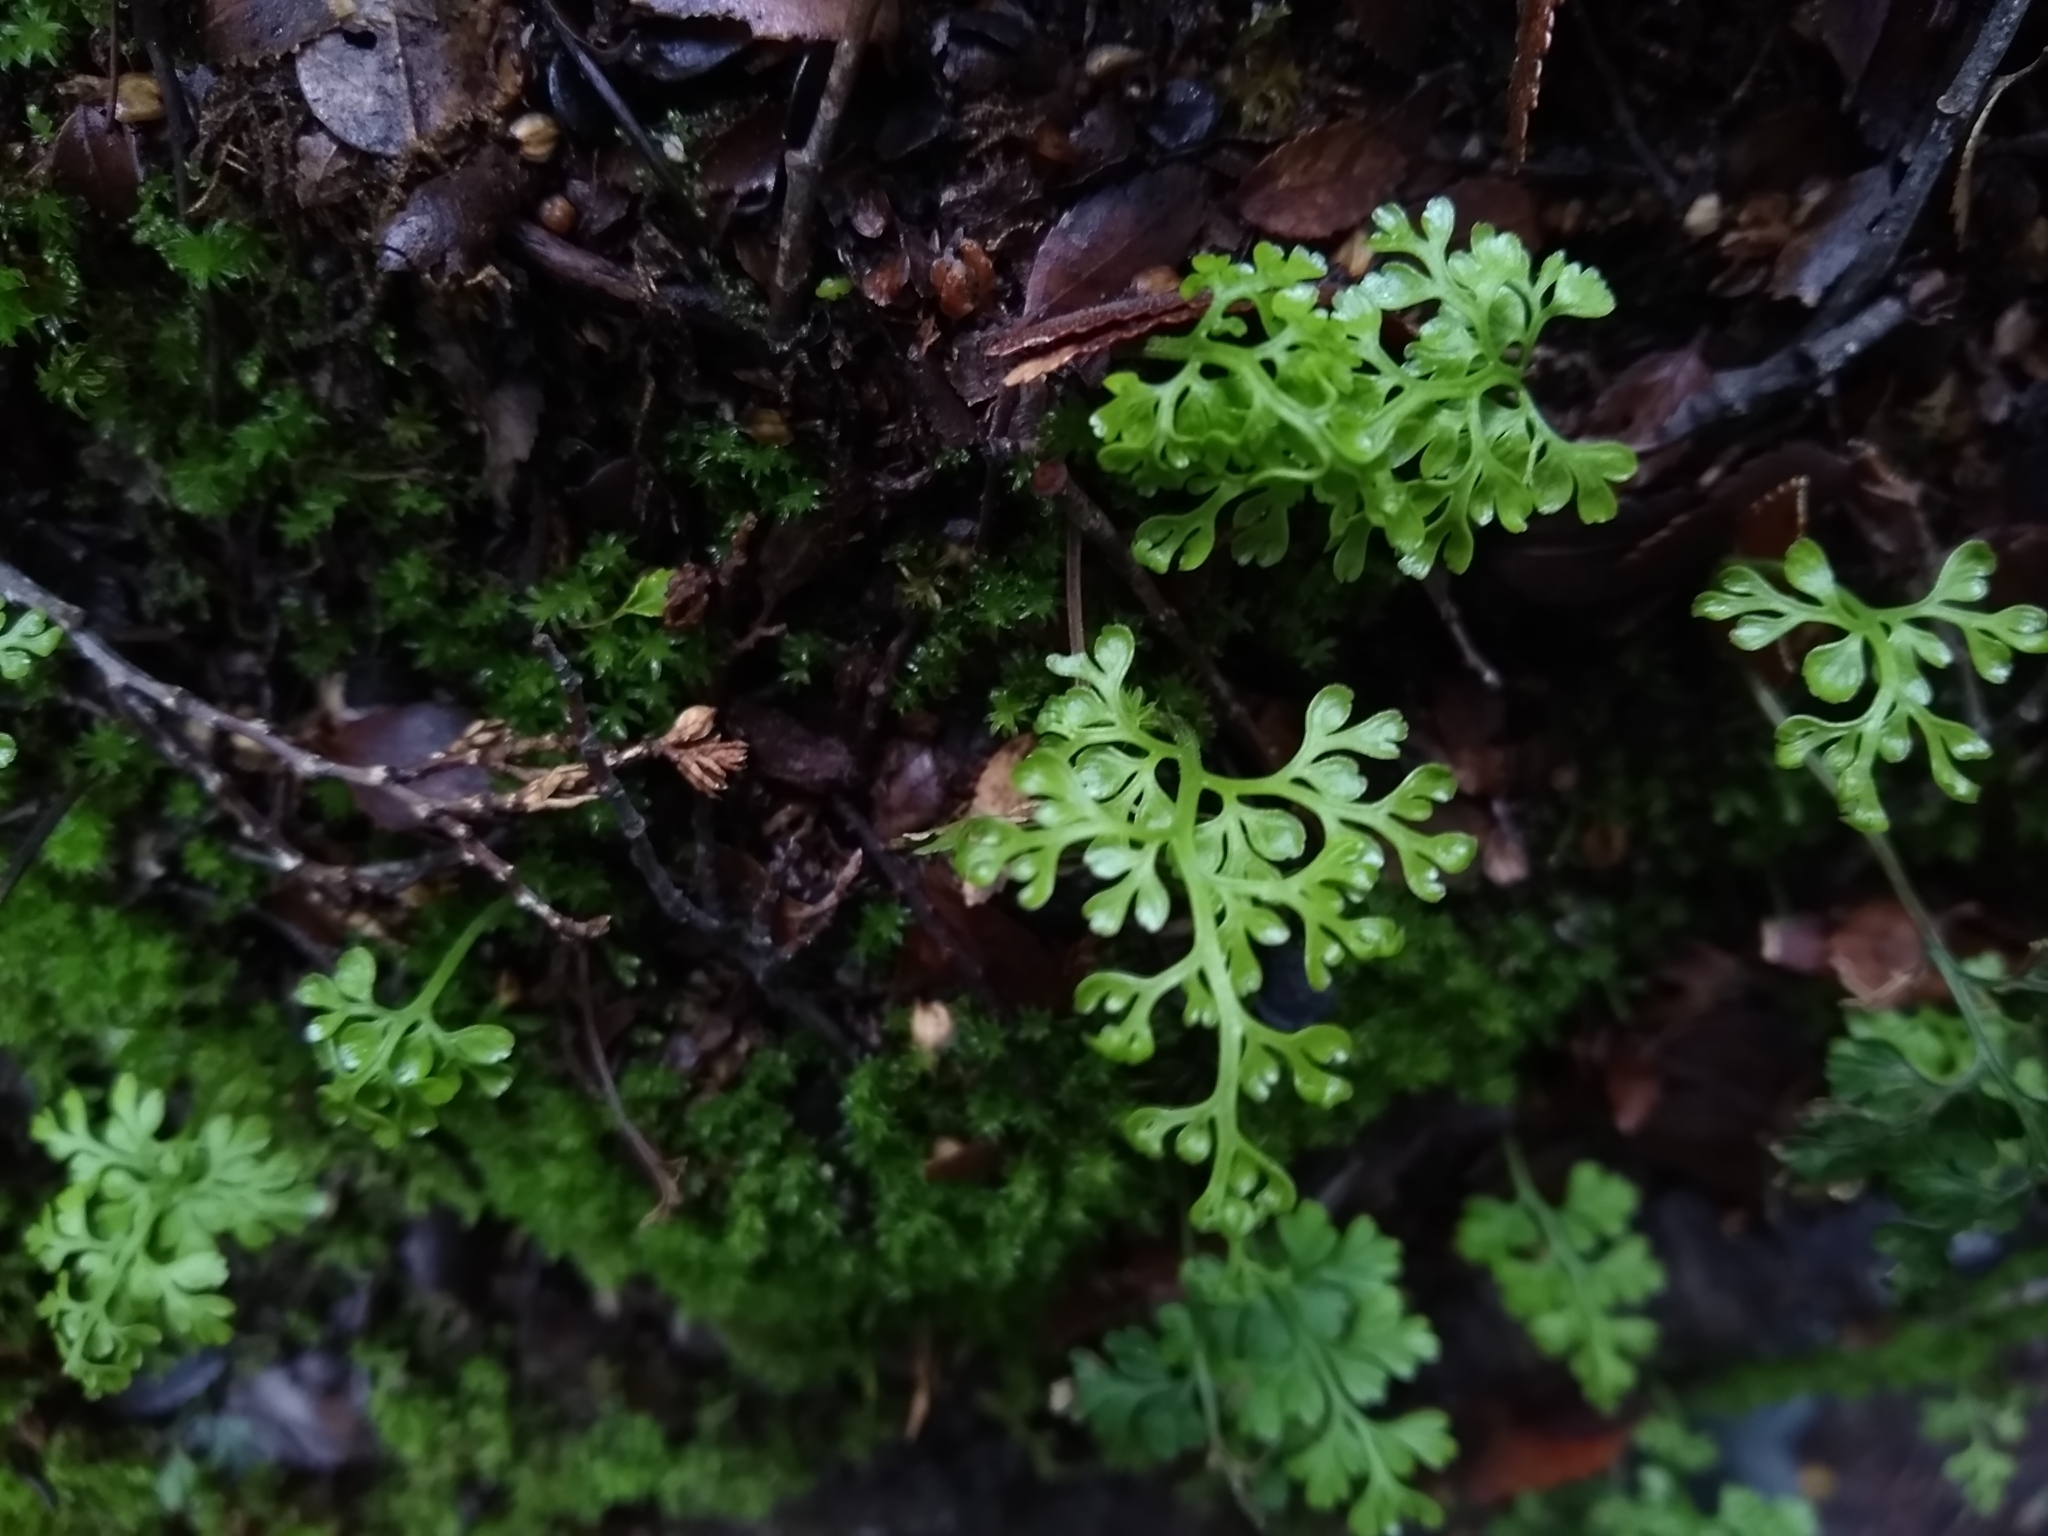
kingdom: Plantae
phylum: Tracheophyta
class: Polypodiopsida
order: Polypodiales
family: Aspleniaceae
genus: Asplenium
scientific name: Asplenium dareoides
